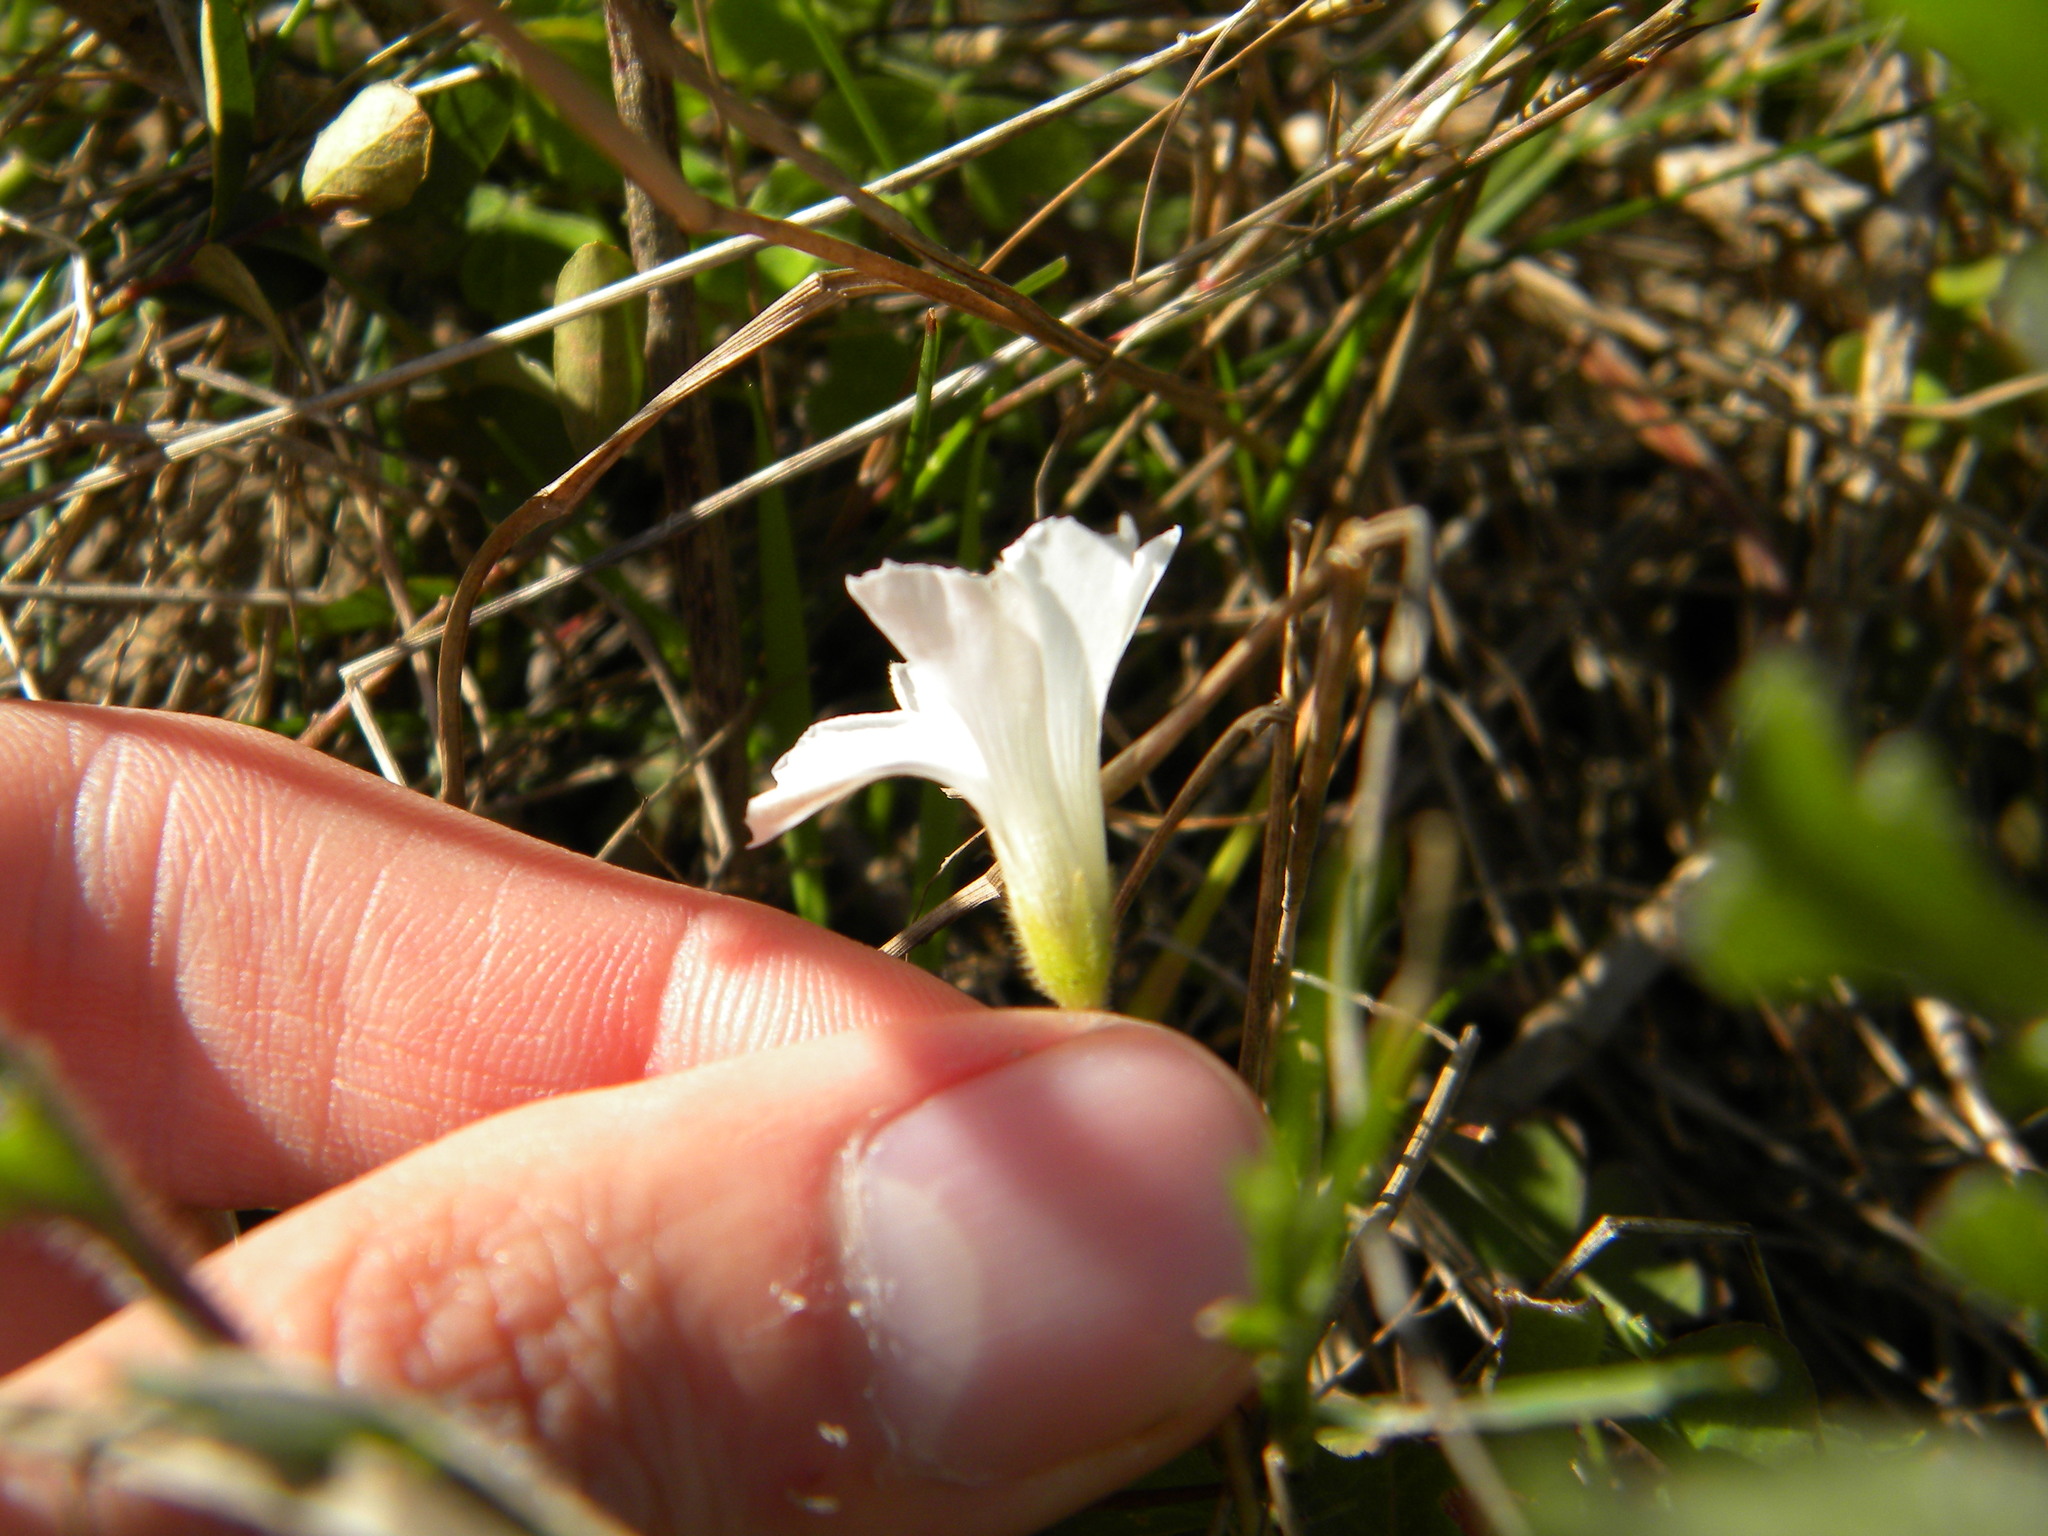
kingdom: Plantae
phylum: Tracheophyta
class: Magnoliopsida
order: Oxalidales
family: Oxalidaceae
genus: Oxalis
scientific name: Oxalis lanata
